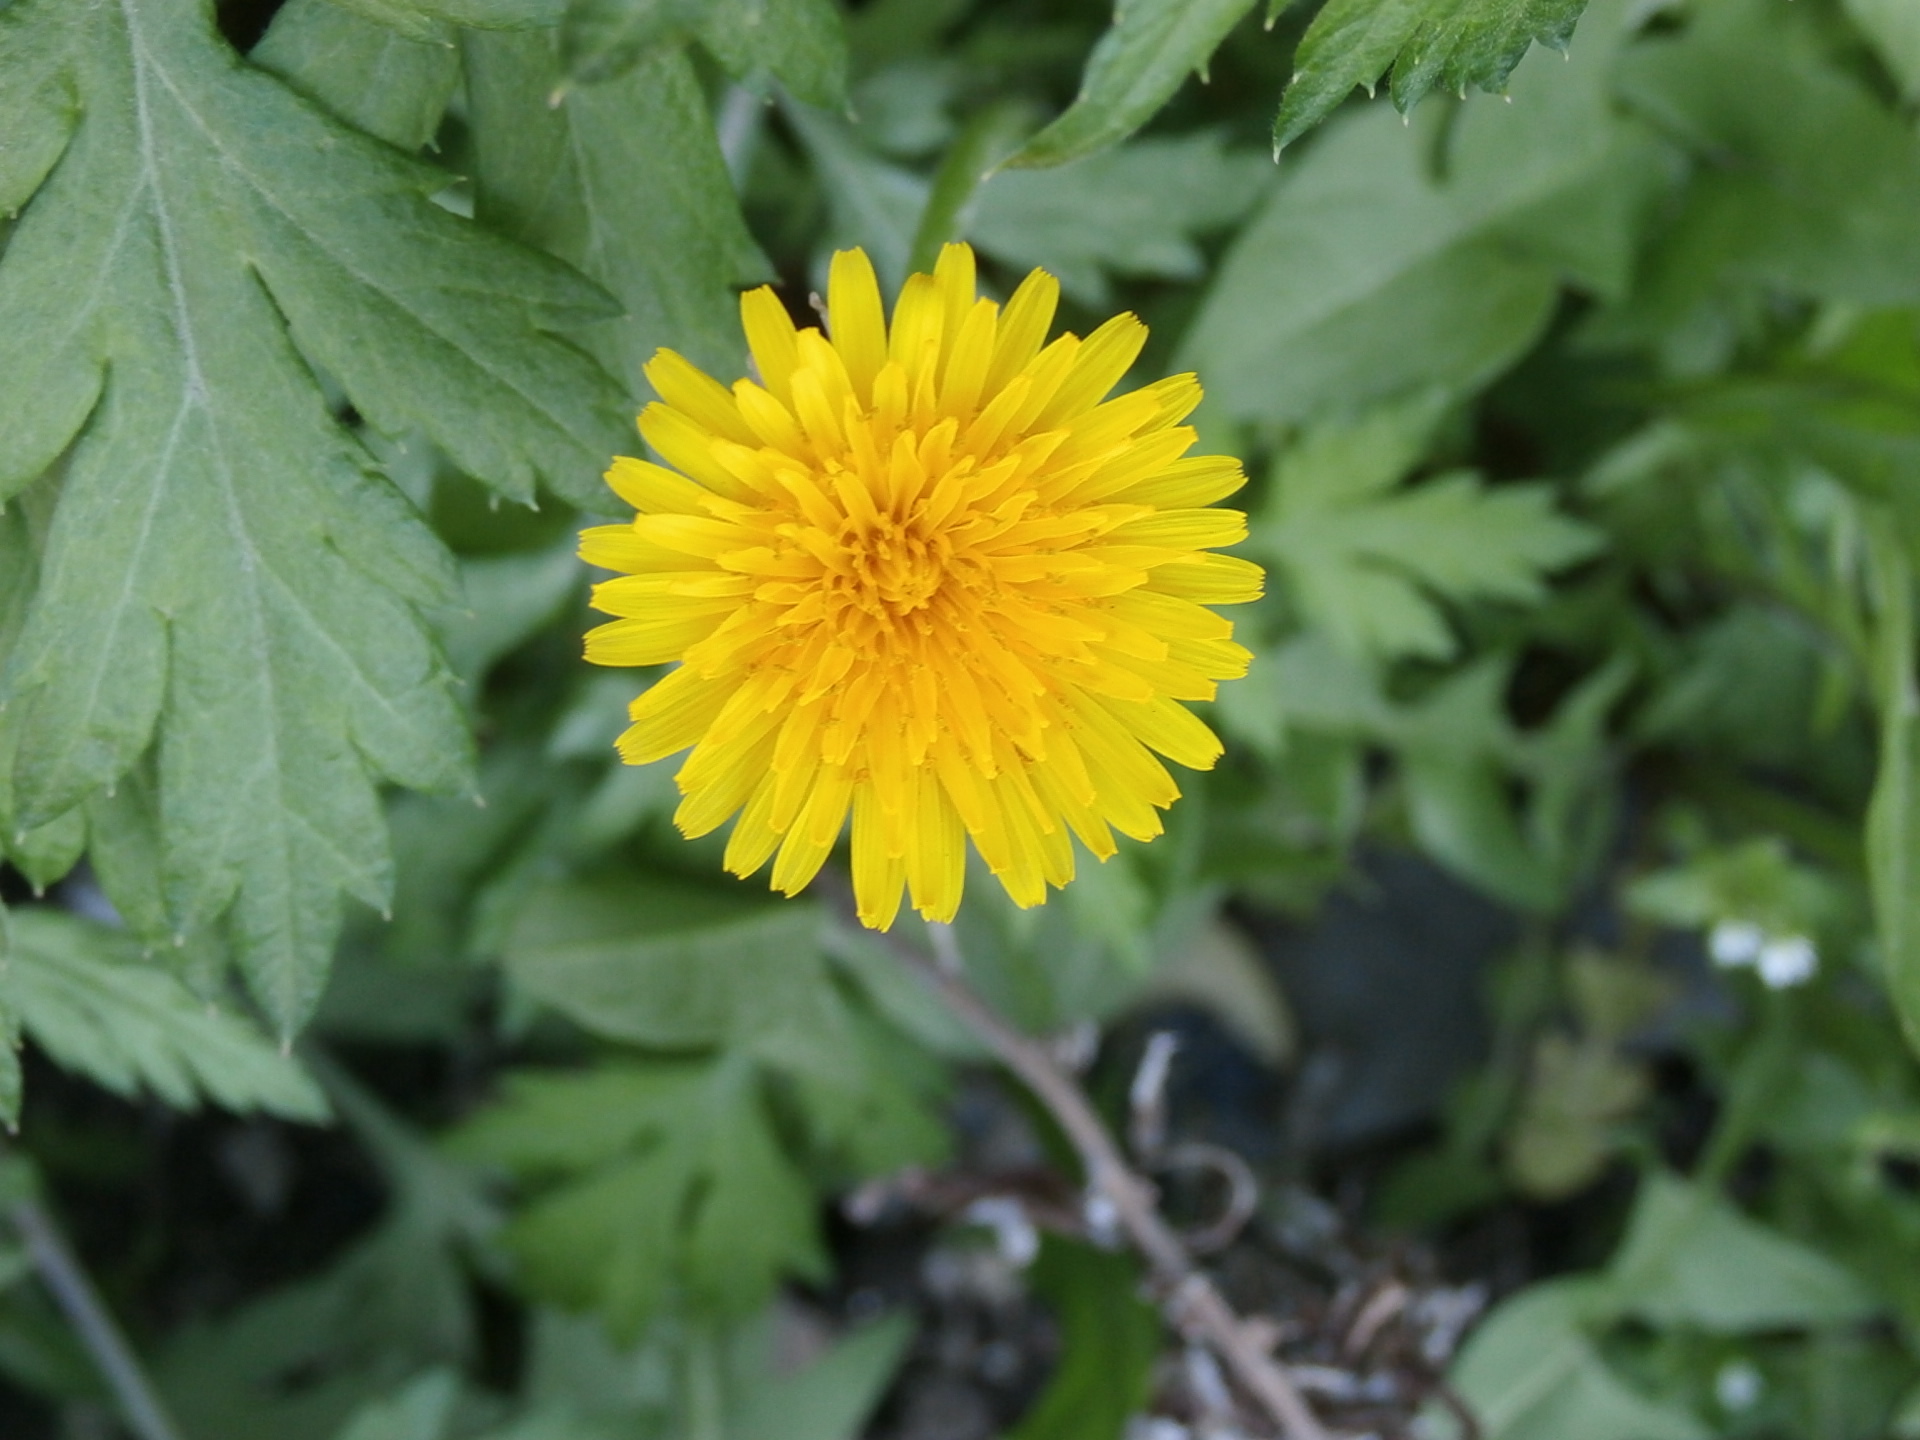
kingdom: Plantae
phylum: Tracheophyta
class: Magnoliopsida
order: Asterales
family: Asteraceae
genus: Taraxacum
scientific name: Taraxacum officinale
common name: Common dandelion
